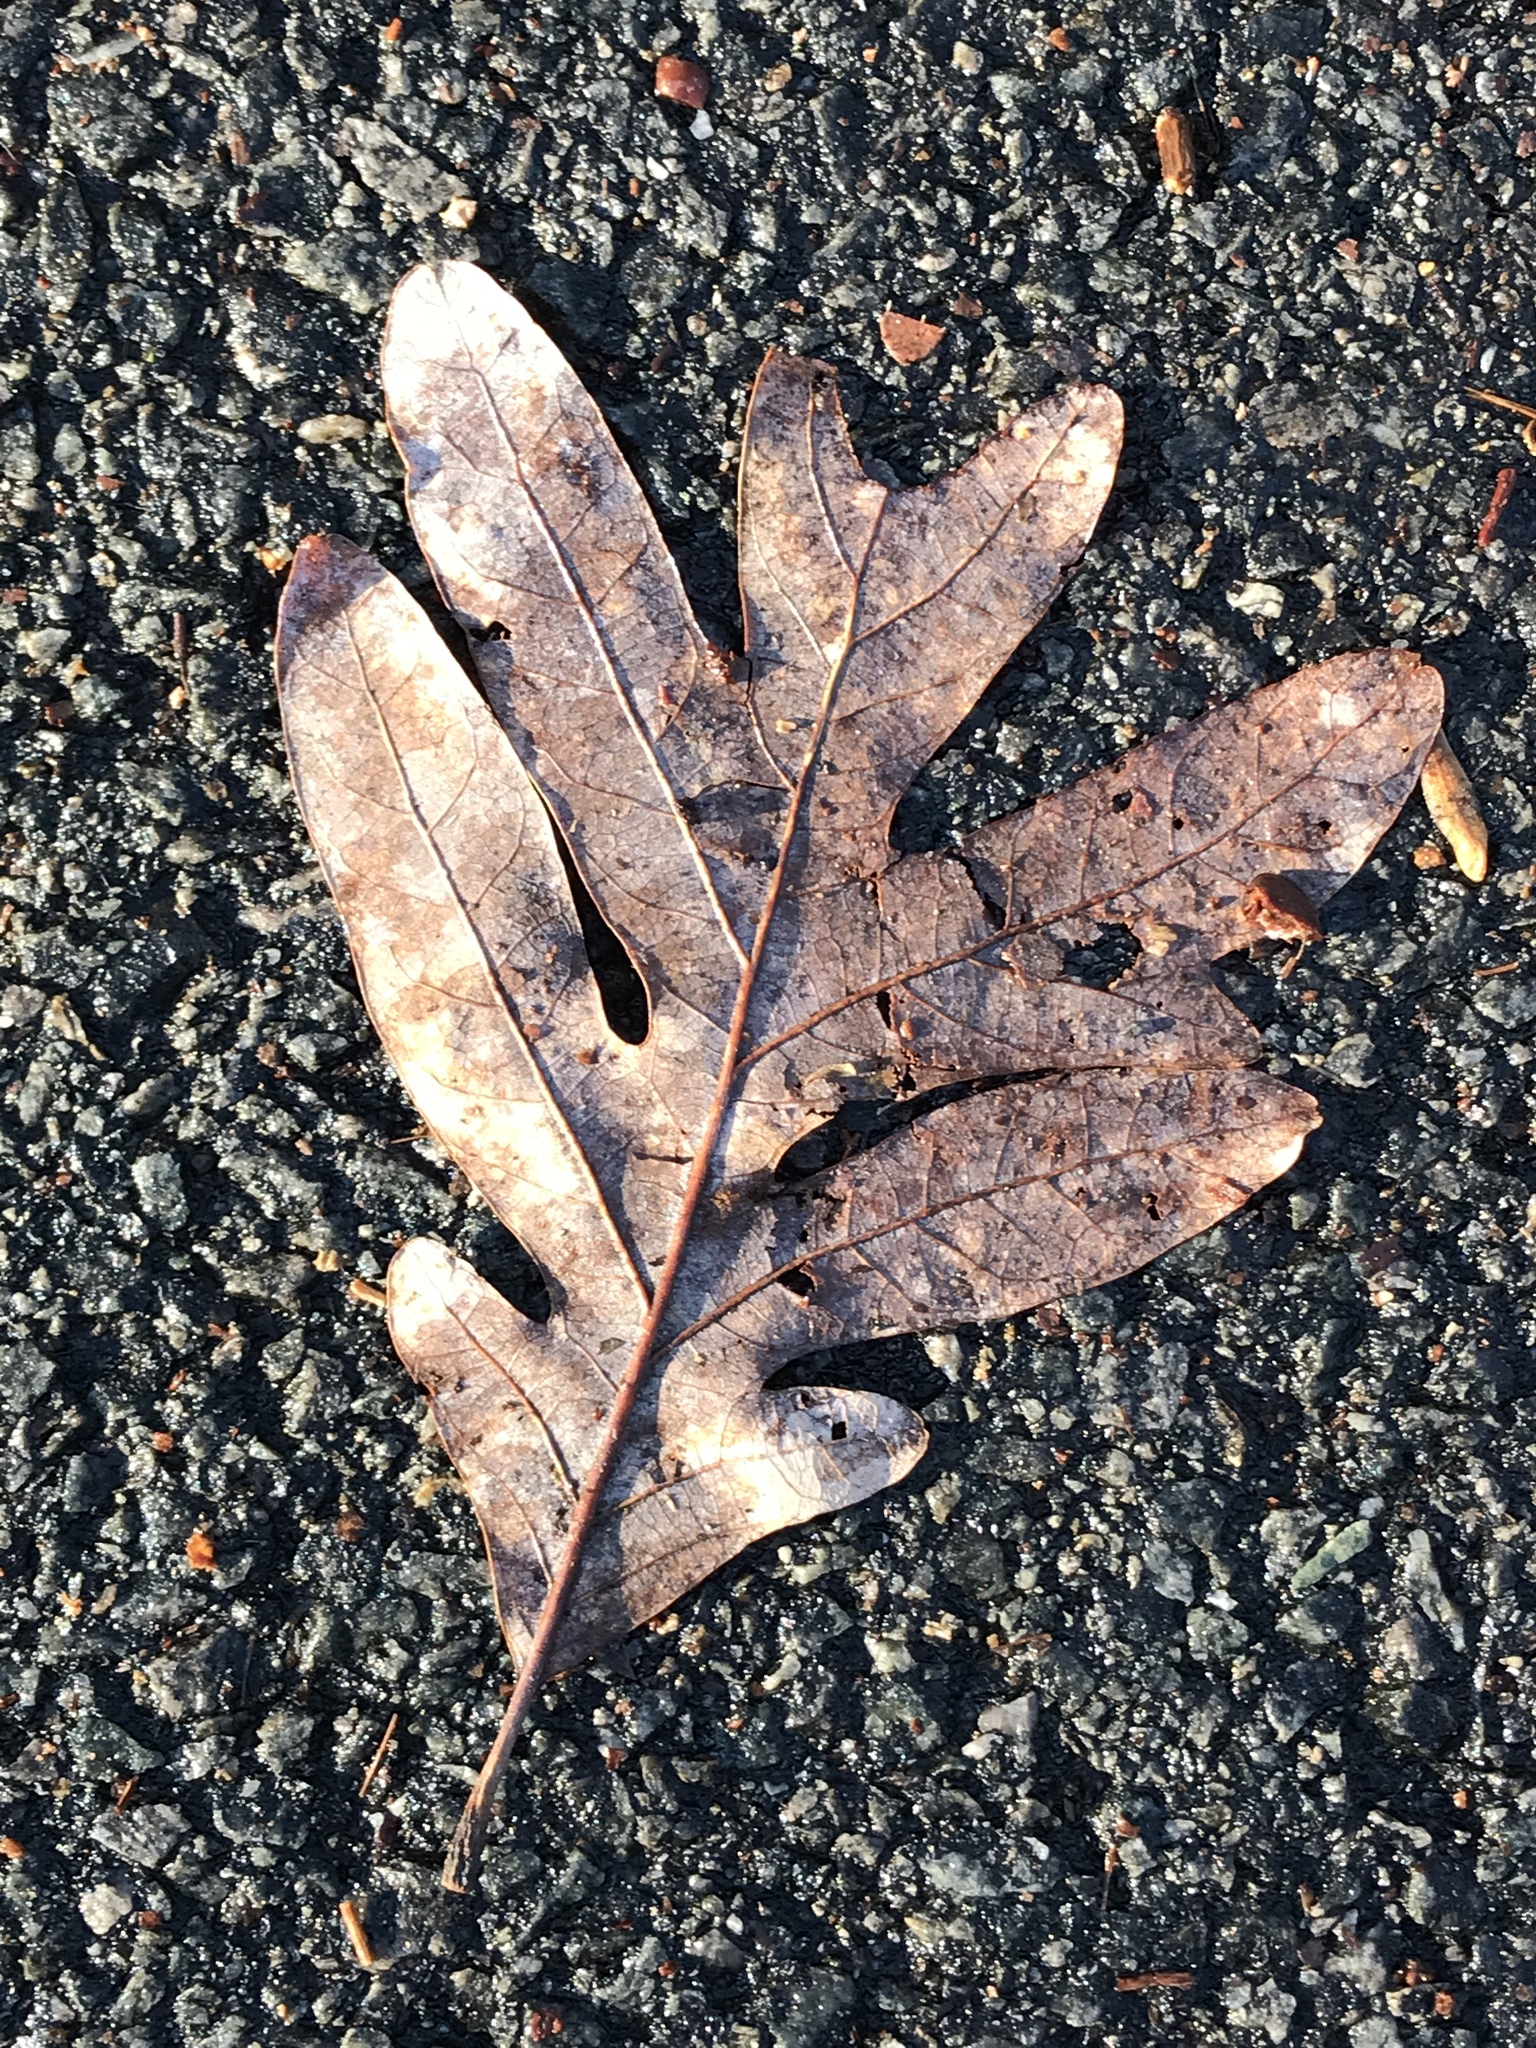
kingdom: Plantae
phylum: Tracheophyta
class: Magnoliopsida
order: Fagales
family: Fagaceae
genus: Quercus
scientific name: Quercus alba
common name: White oak
